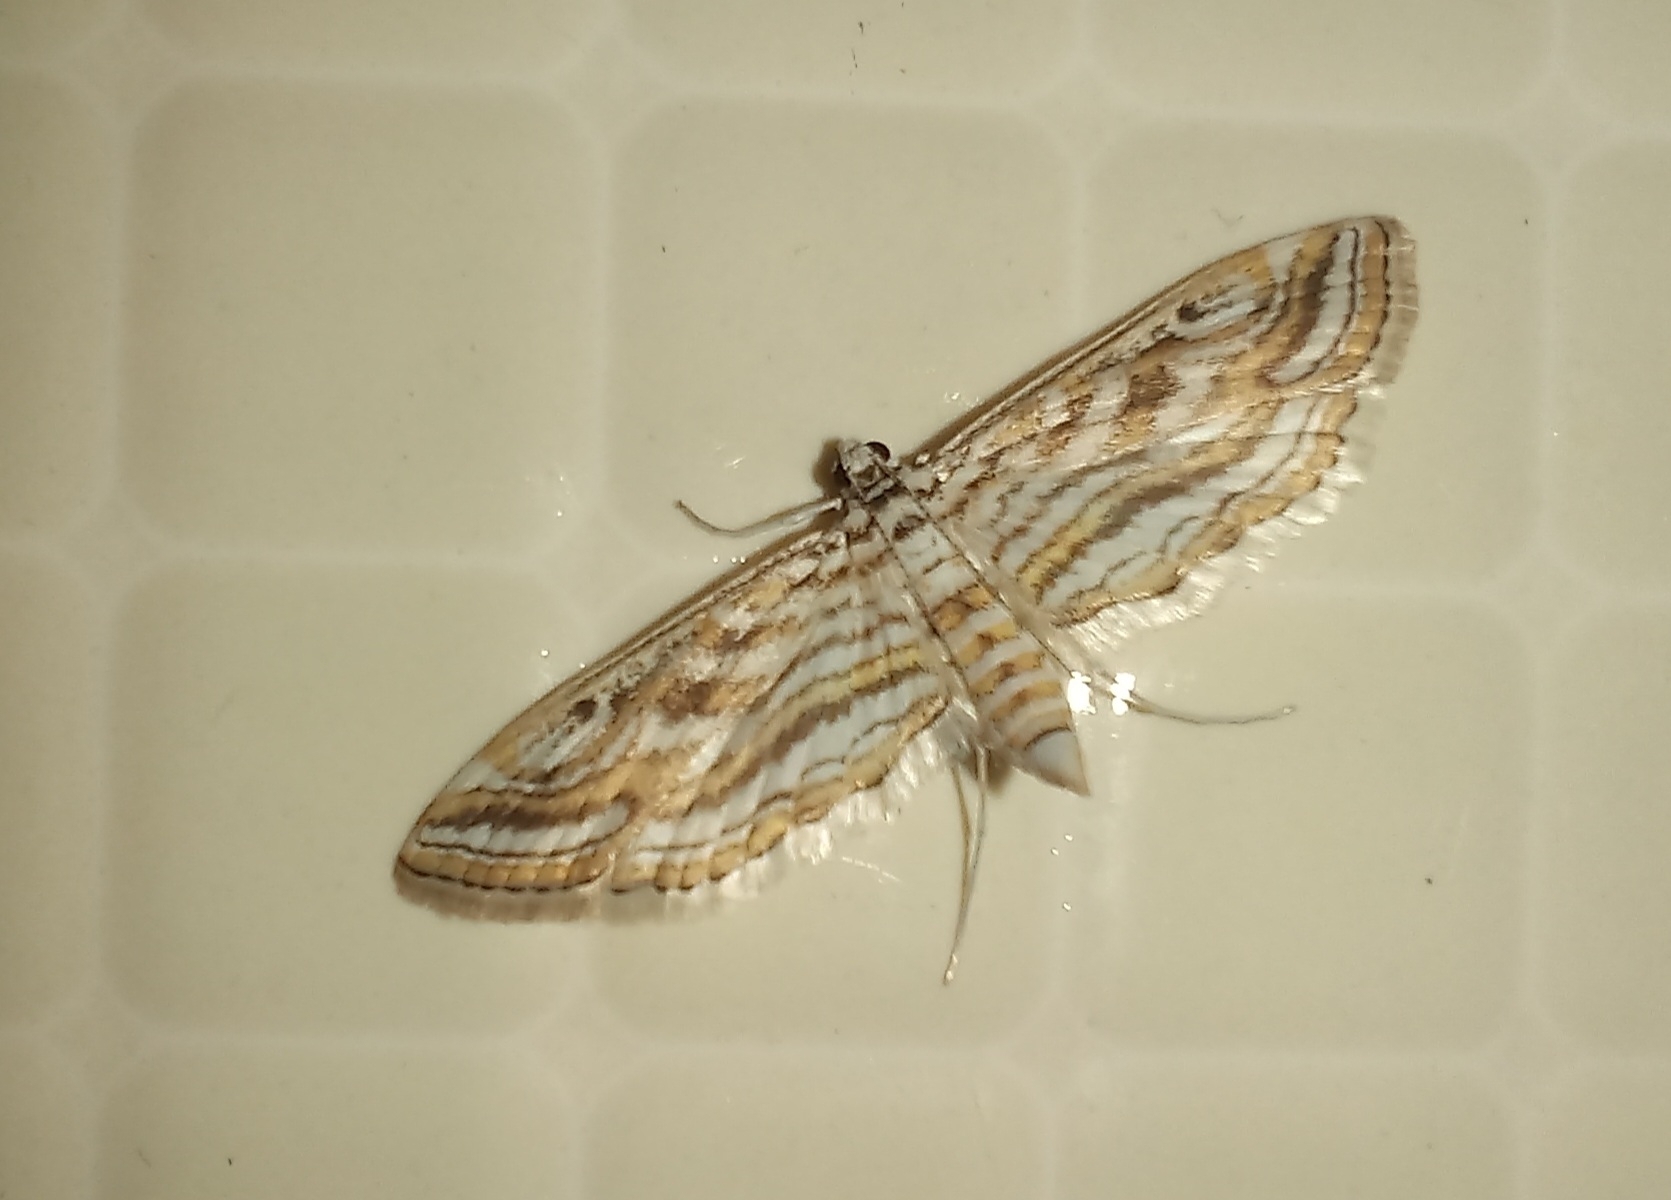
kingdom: Animalia
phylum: Arthropoda
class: Insecta
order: Lepidoptera
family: Crambidae
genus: Parapoynx
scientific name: Parapoynx fluctuosalis
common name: Moth
